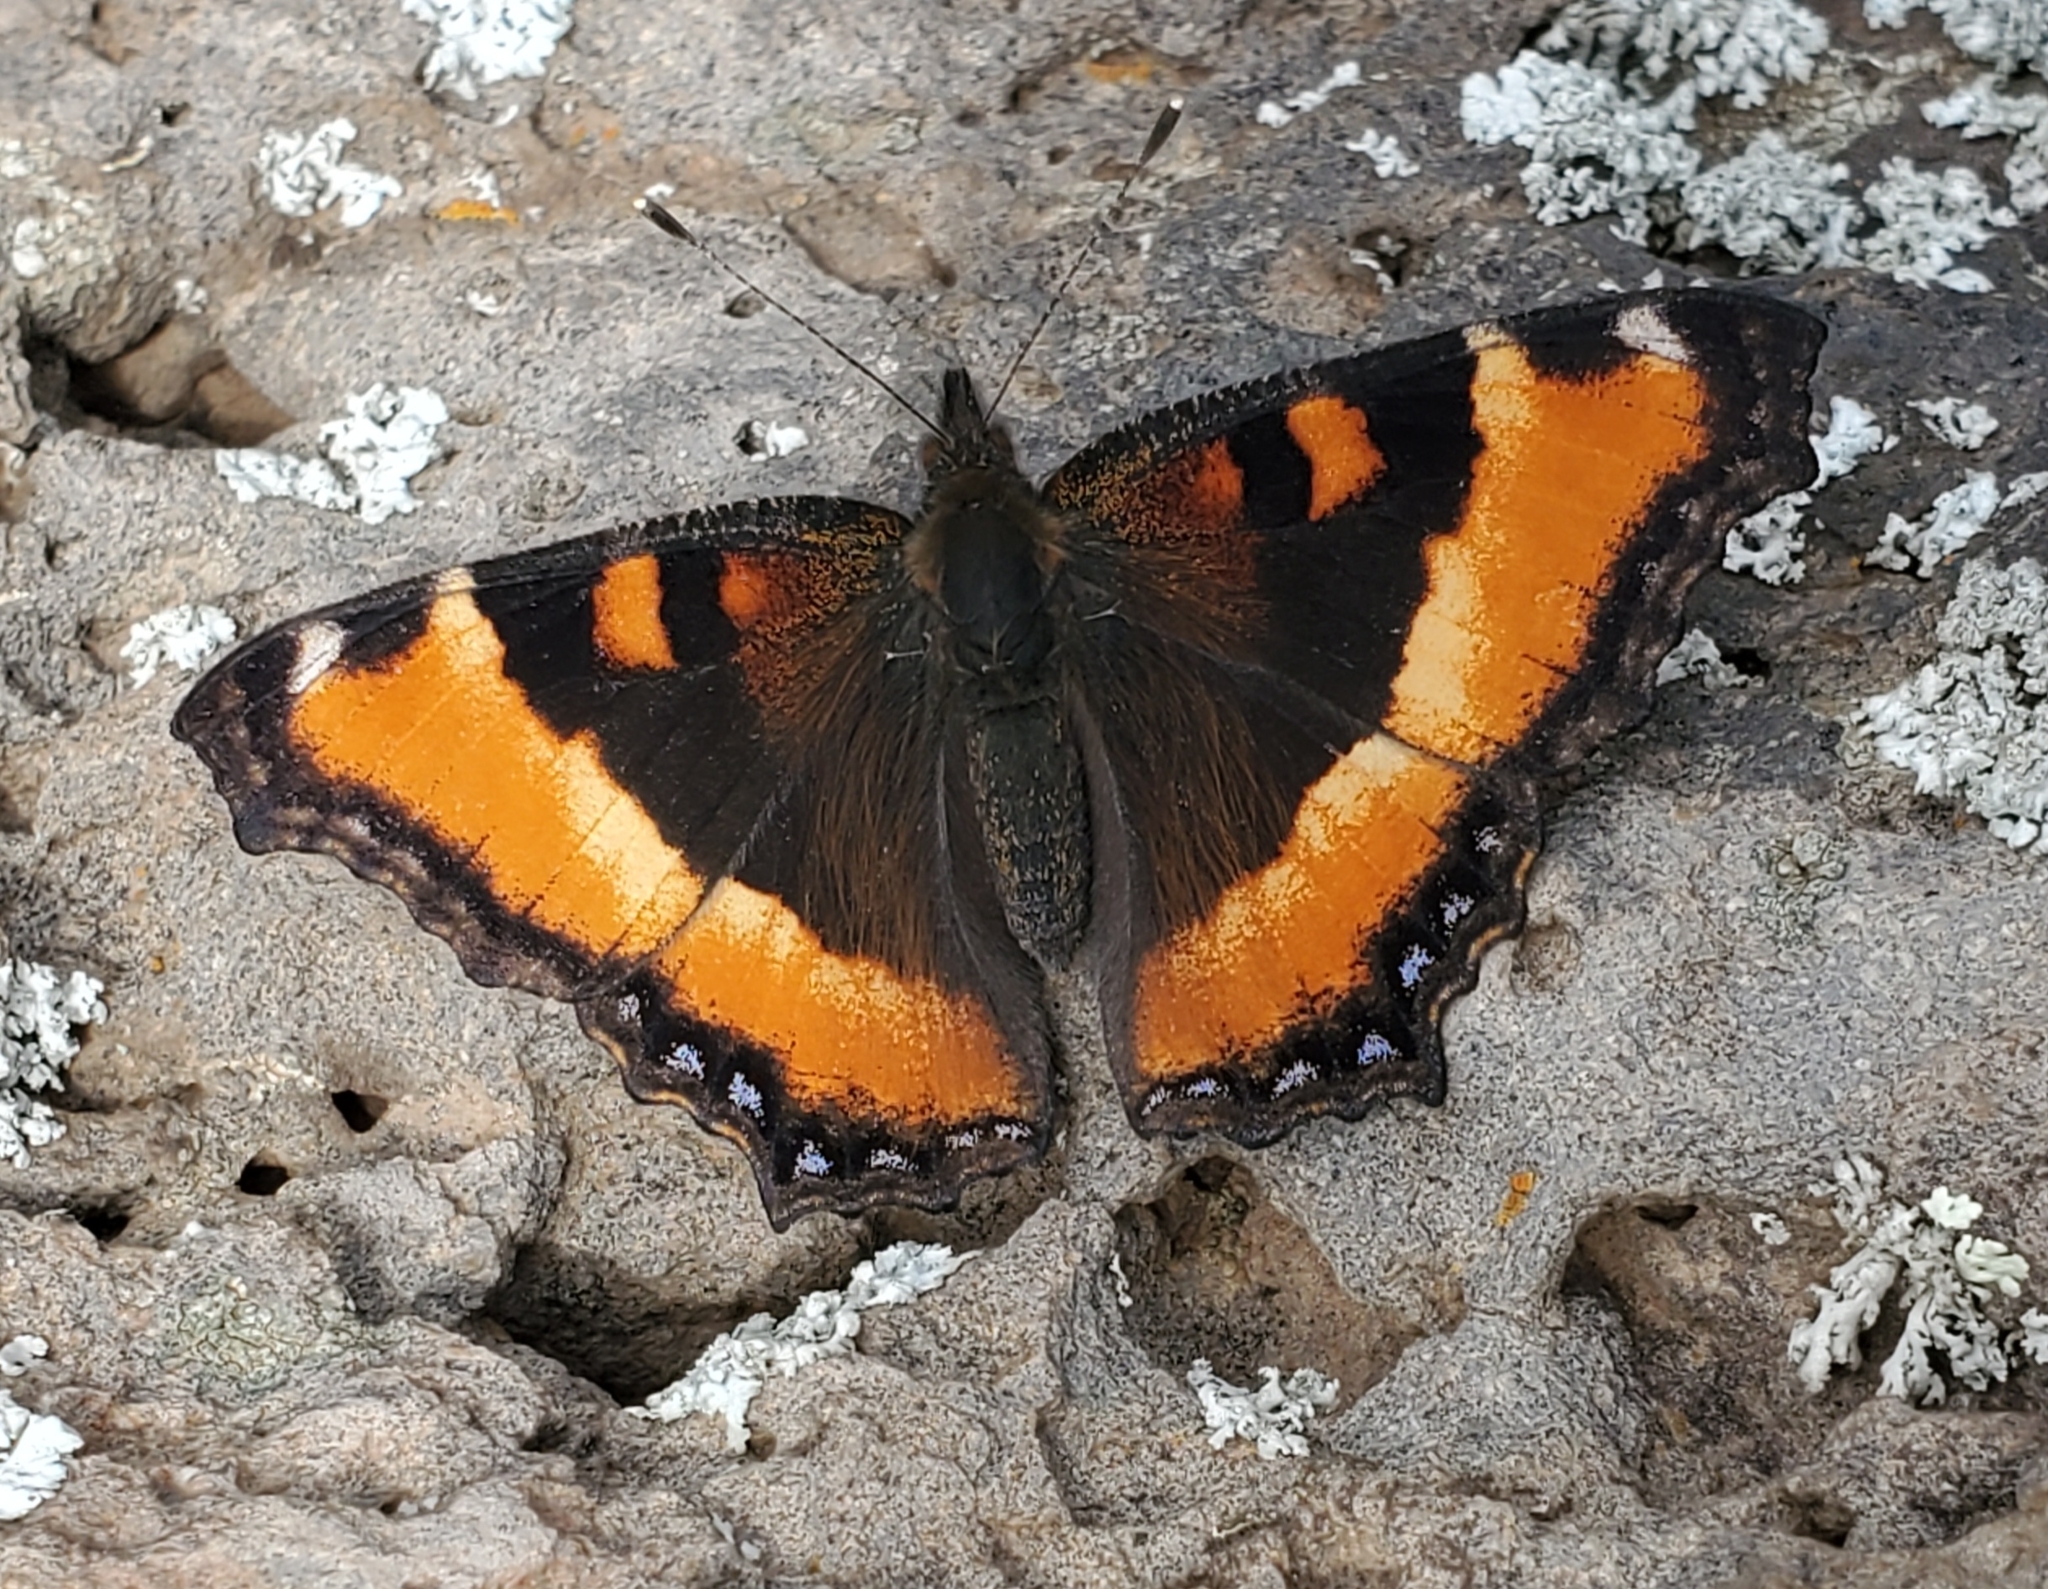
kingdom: Animalia
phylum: Arthropoda
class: Insecta
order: Lepidoptera
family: Nymphalidae
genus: Aglais
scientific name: Aglais milberti
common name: Milbert's tortoiseshell
